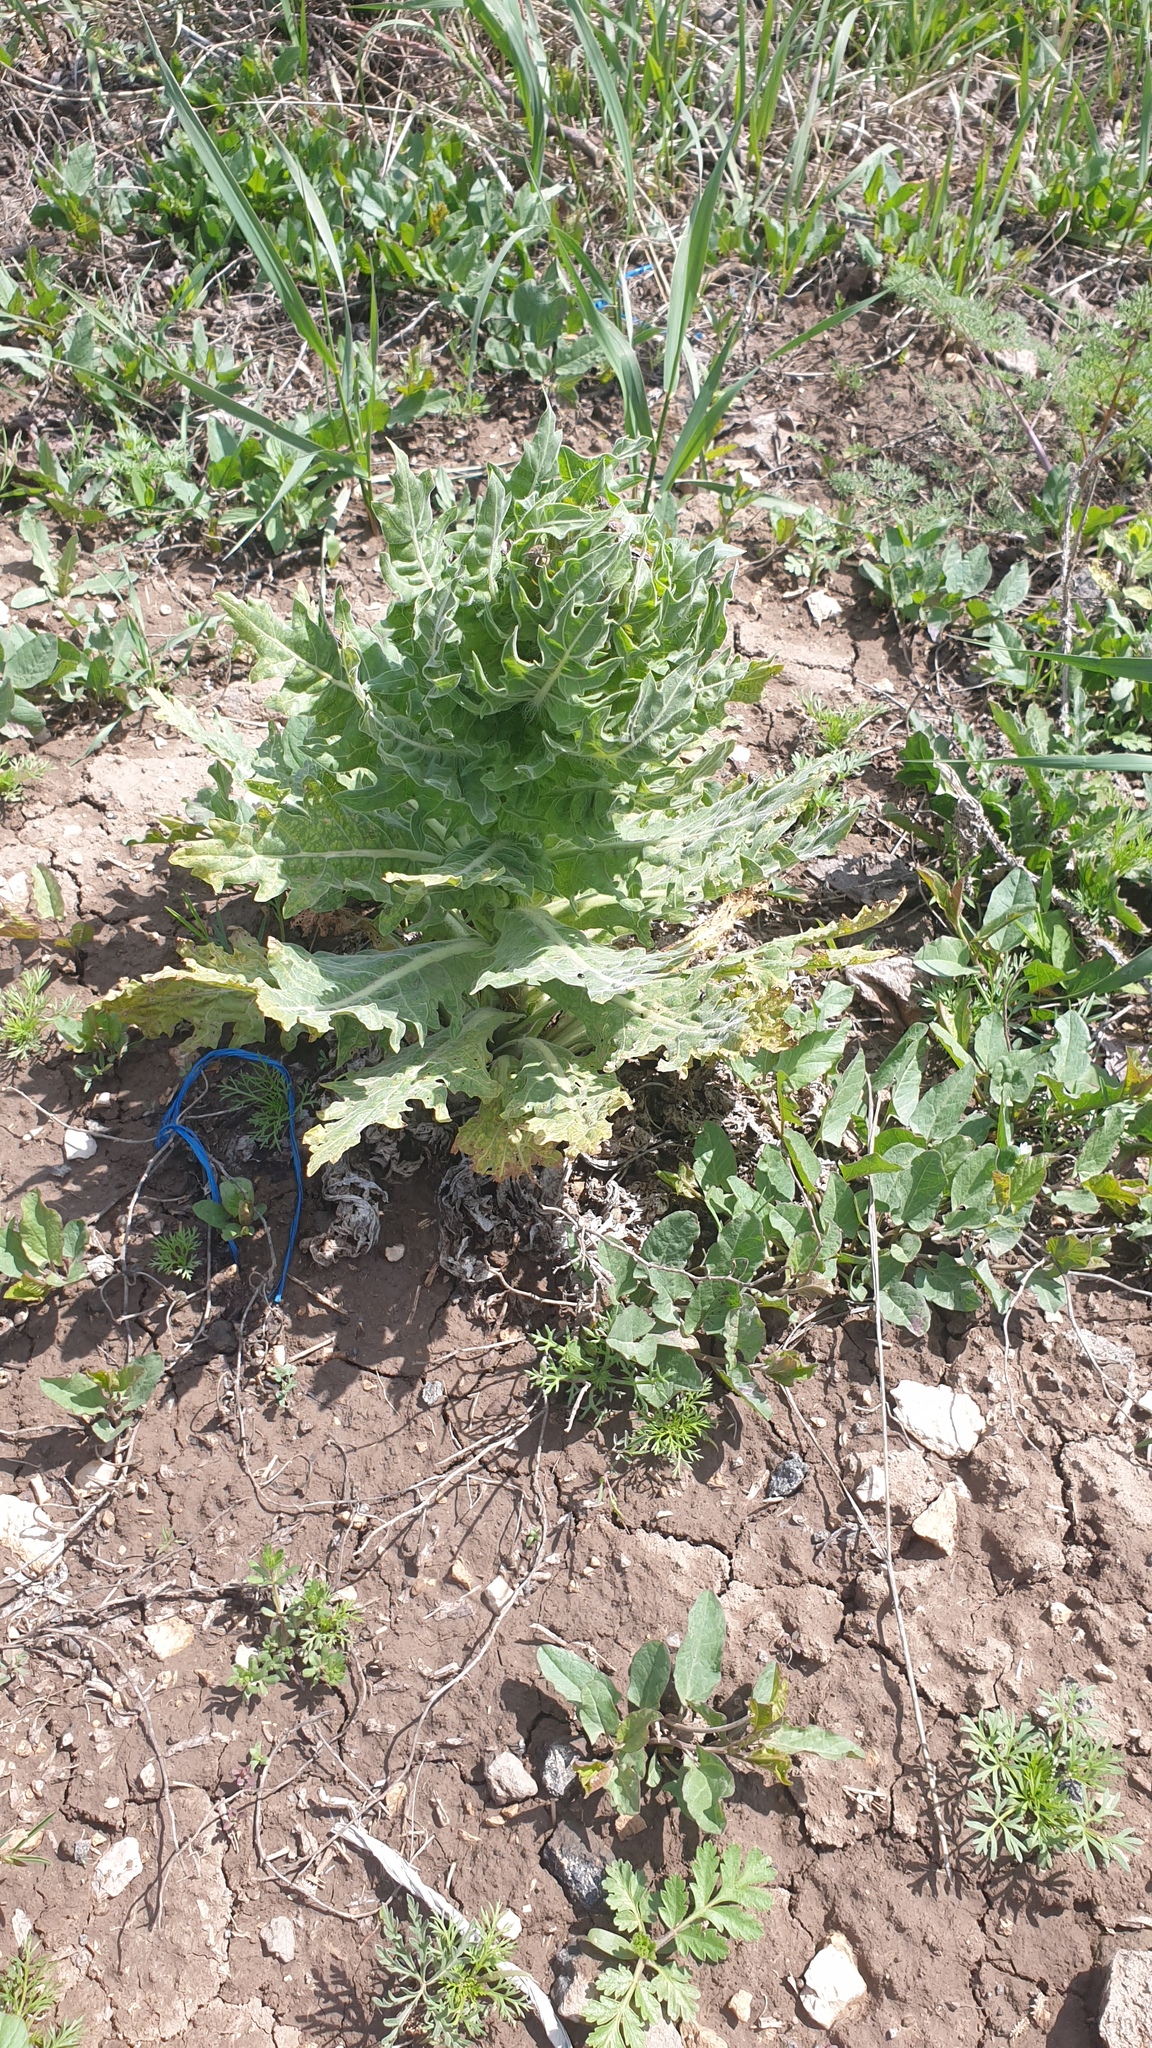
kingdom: Plantae
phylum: Tracheophyta
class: Magnoliopsida
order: Solanales
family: Solanaceae
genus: Hyoscyamus
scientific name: Hyoscyamus niger
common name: Henbane
